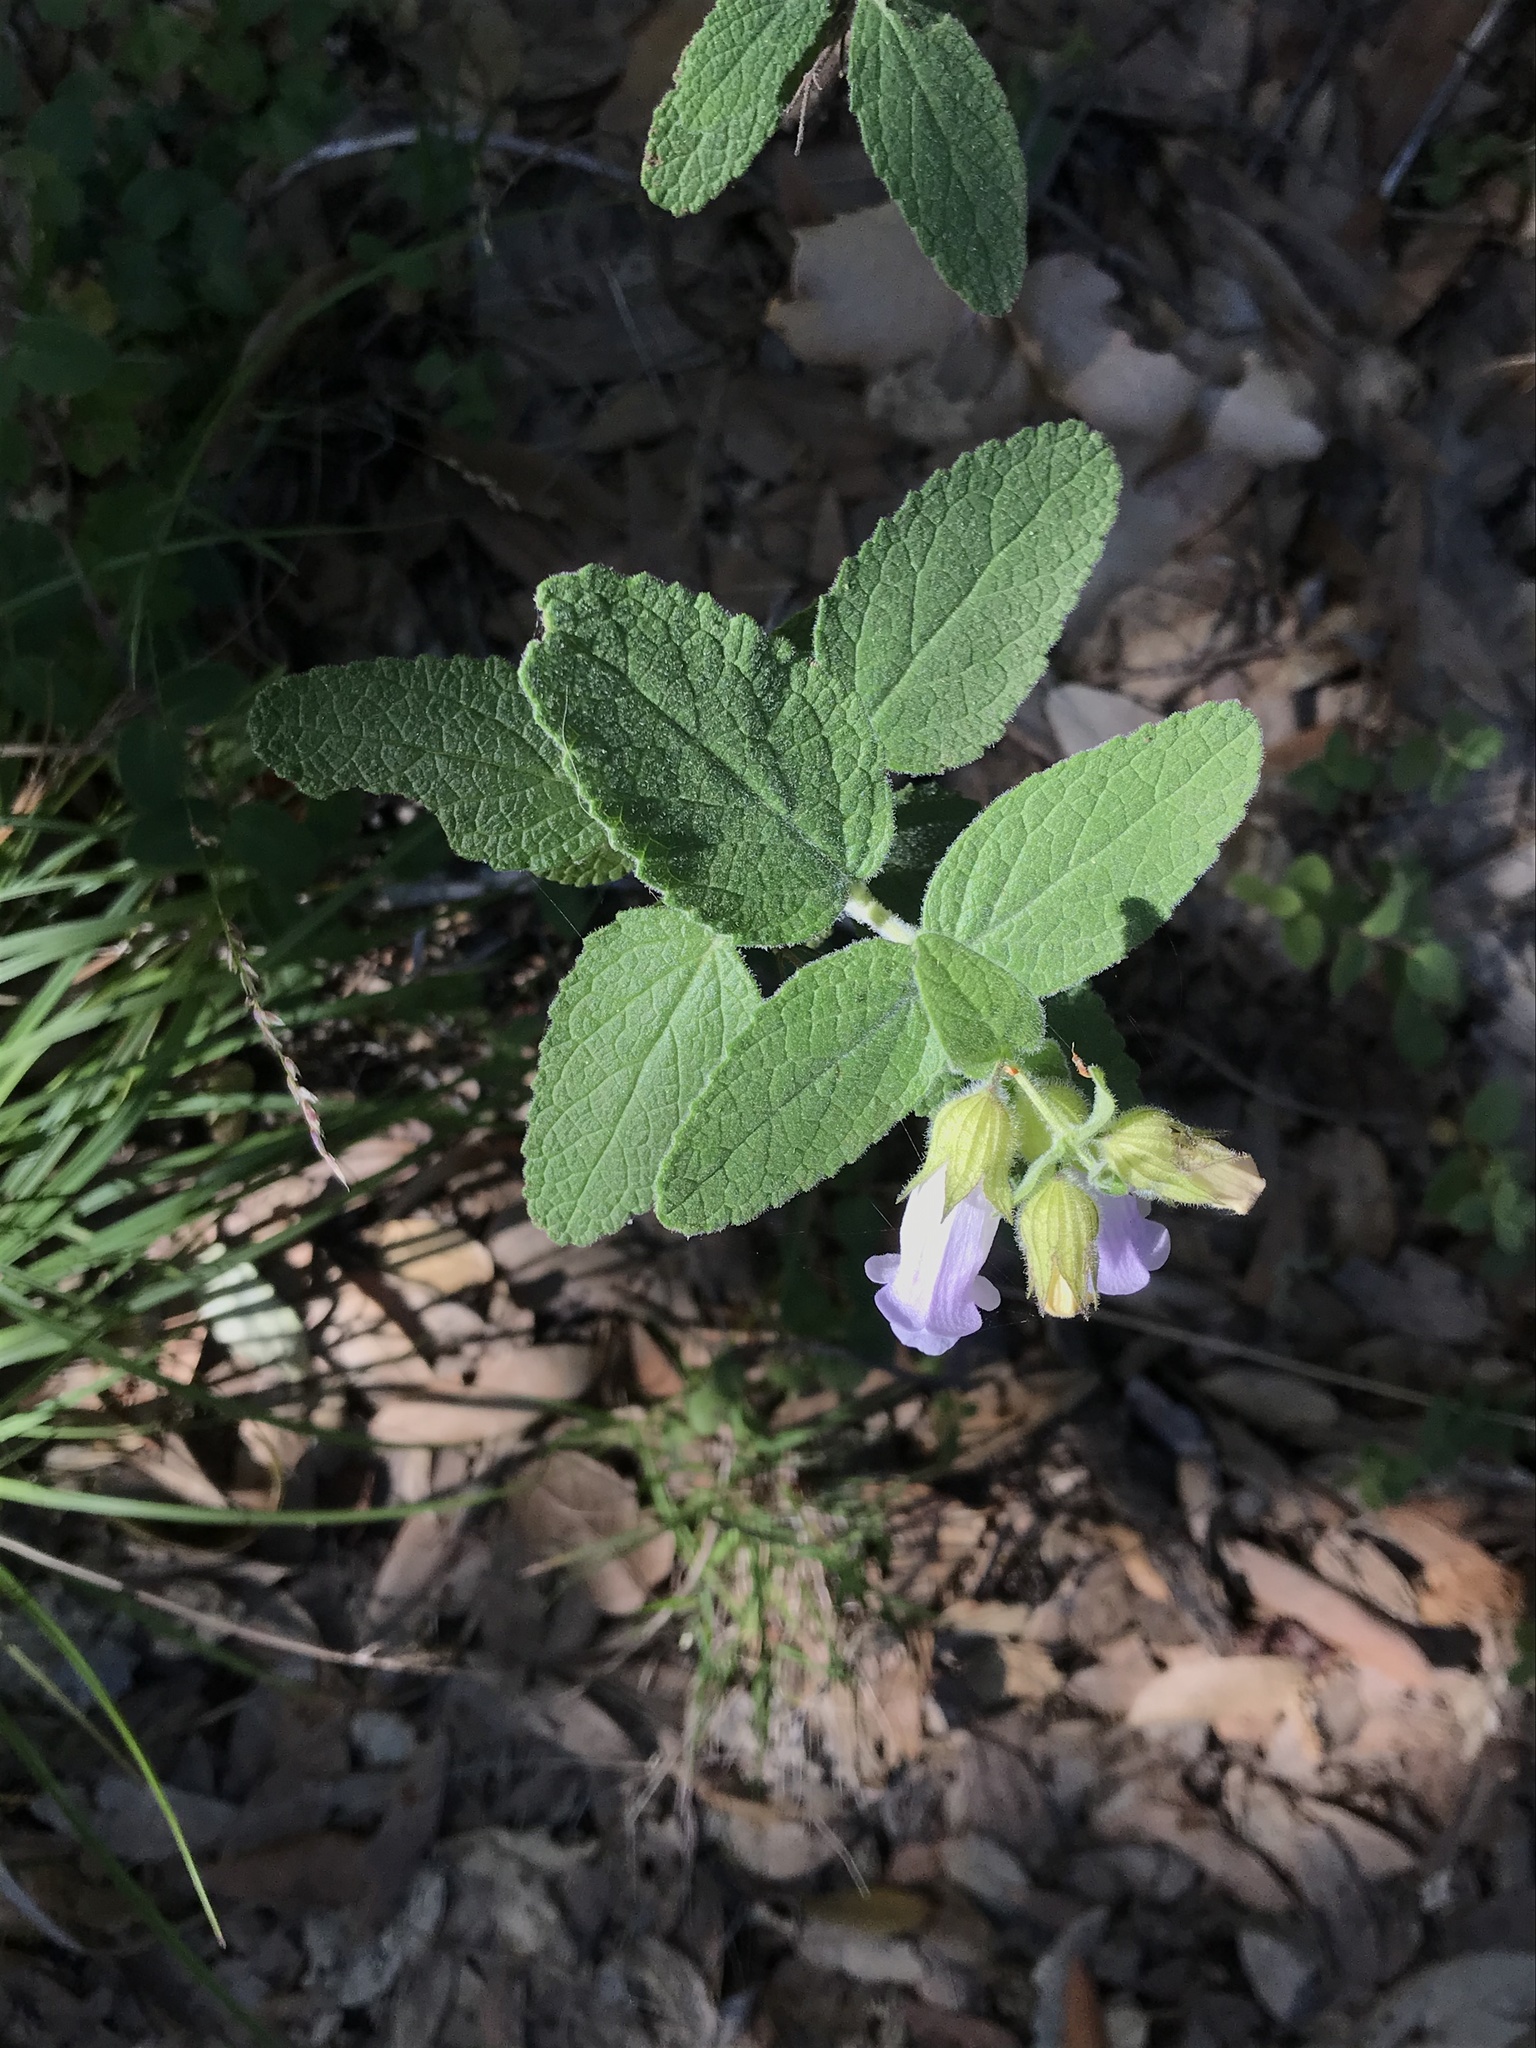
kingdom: Plantae
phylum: Tracheophyta
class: Magnoliopsida
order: Lamiales
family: Lamiaceae
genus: Lepechinia
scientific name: Lepechinia calycina
